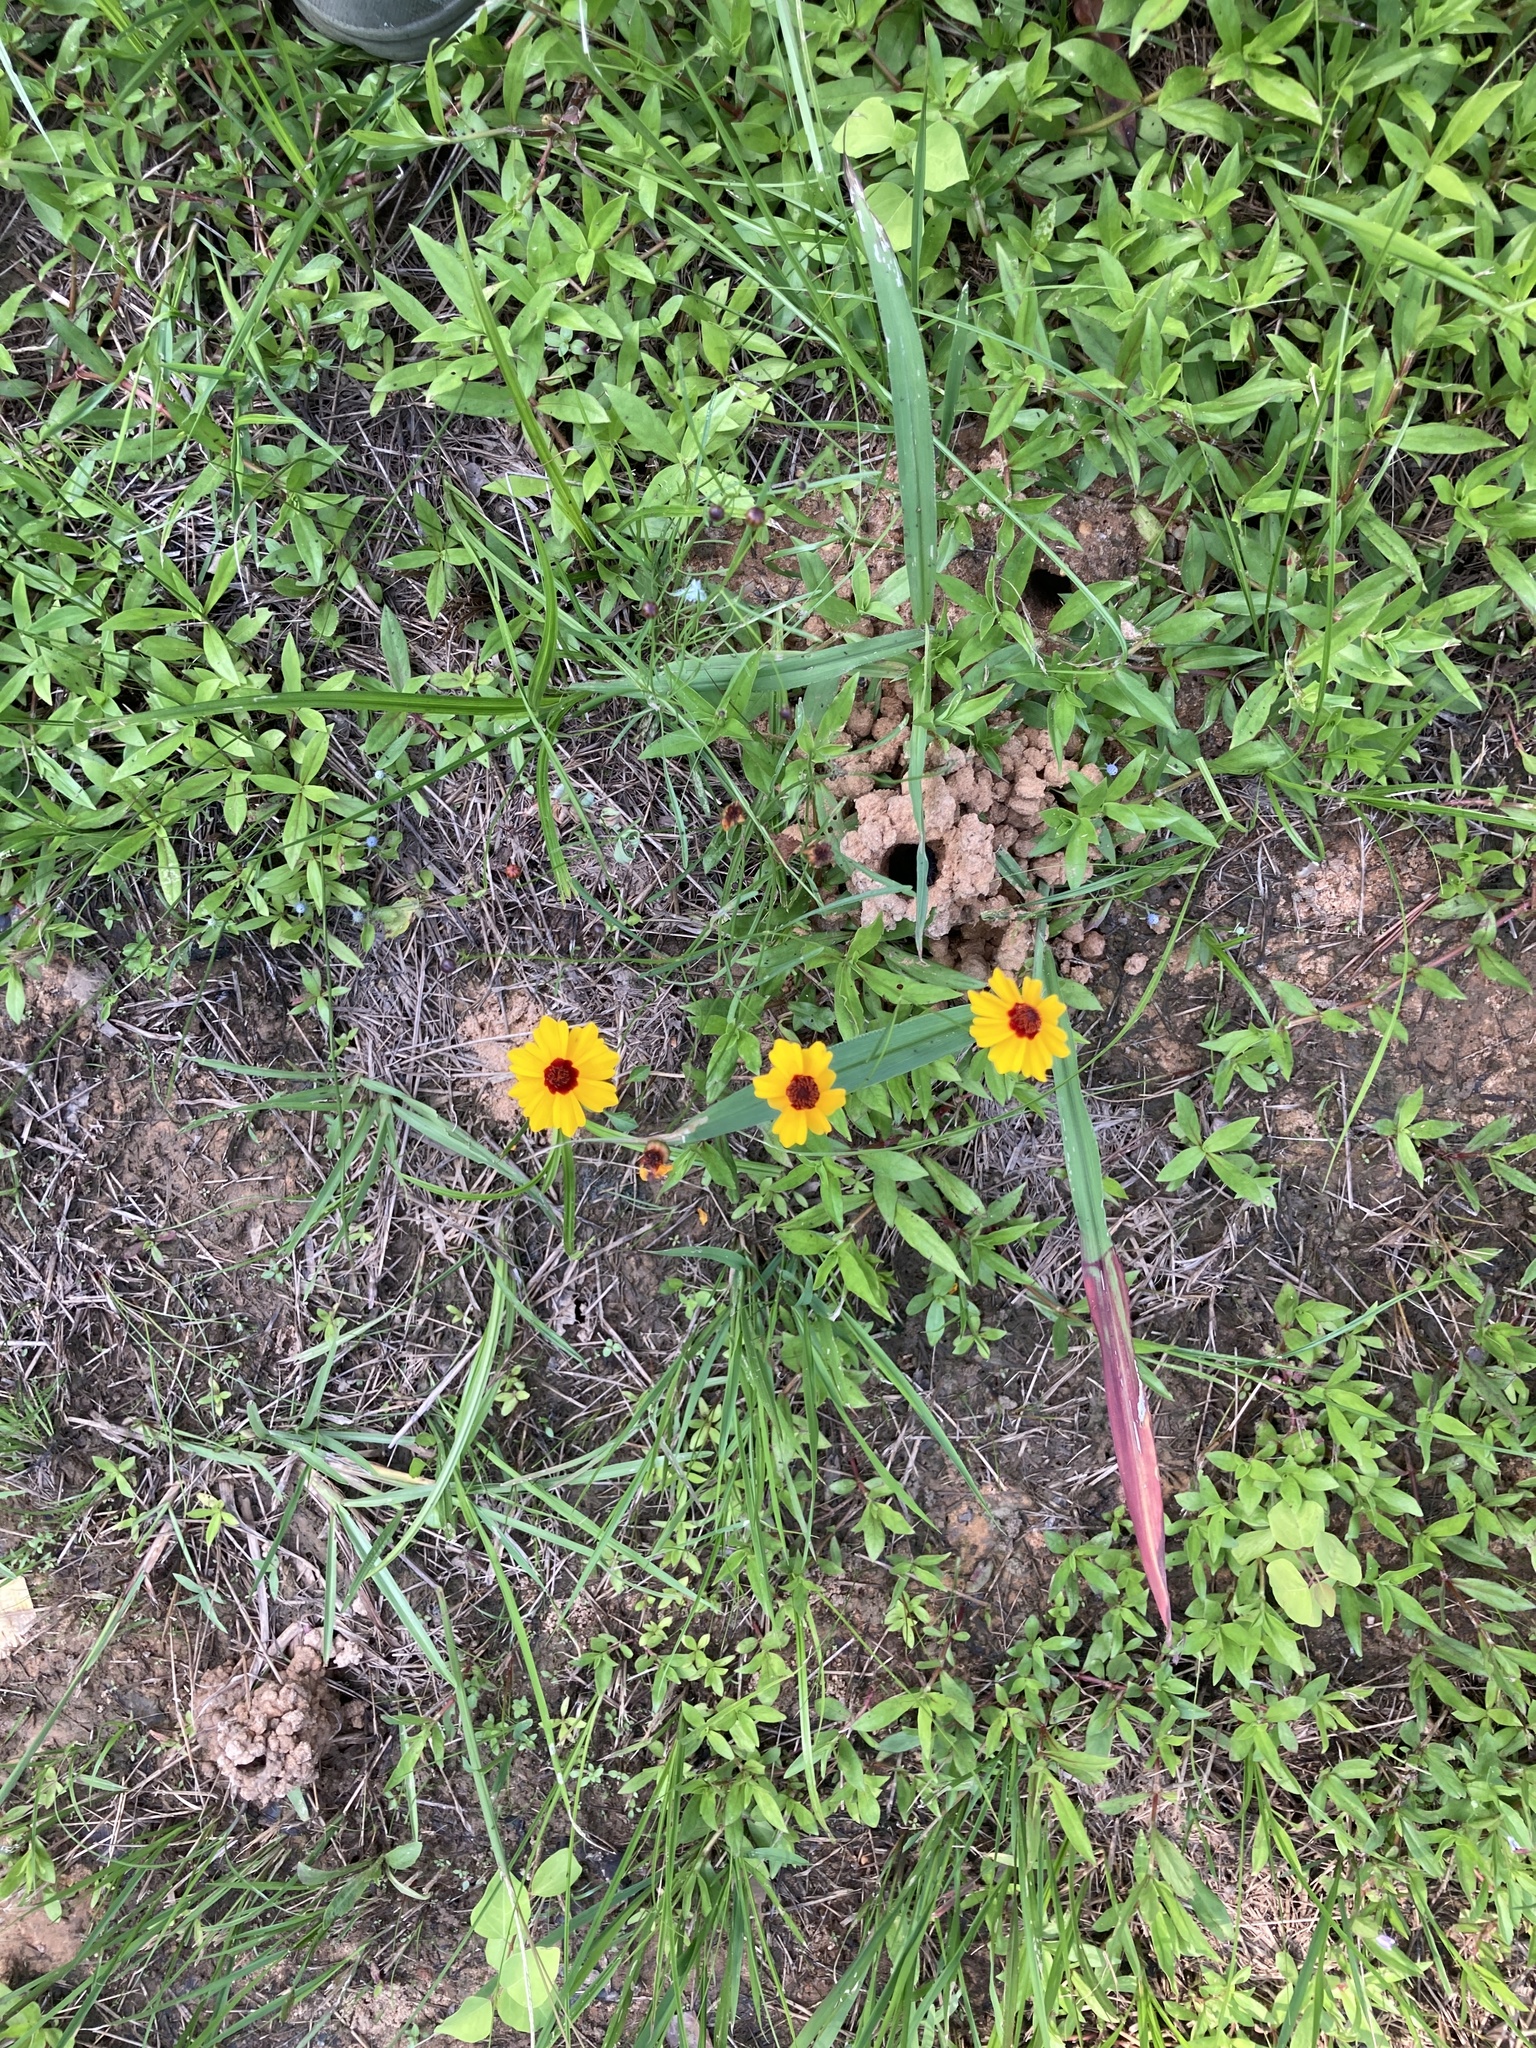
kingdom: Plantae
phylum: Tracheophyta
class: Magnoliopsida
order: Asterales
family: Asteraceae
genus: Coreopsis
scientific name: Coreopsis tinctoria
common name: Garden tickseed
